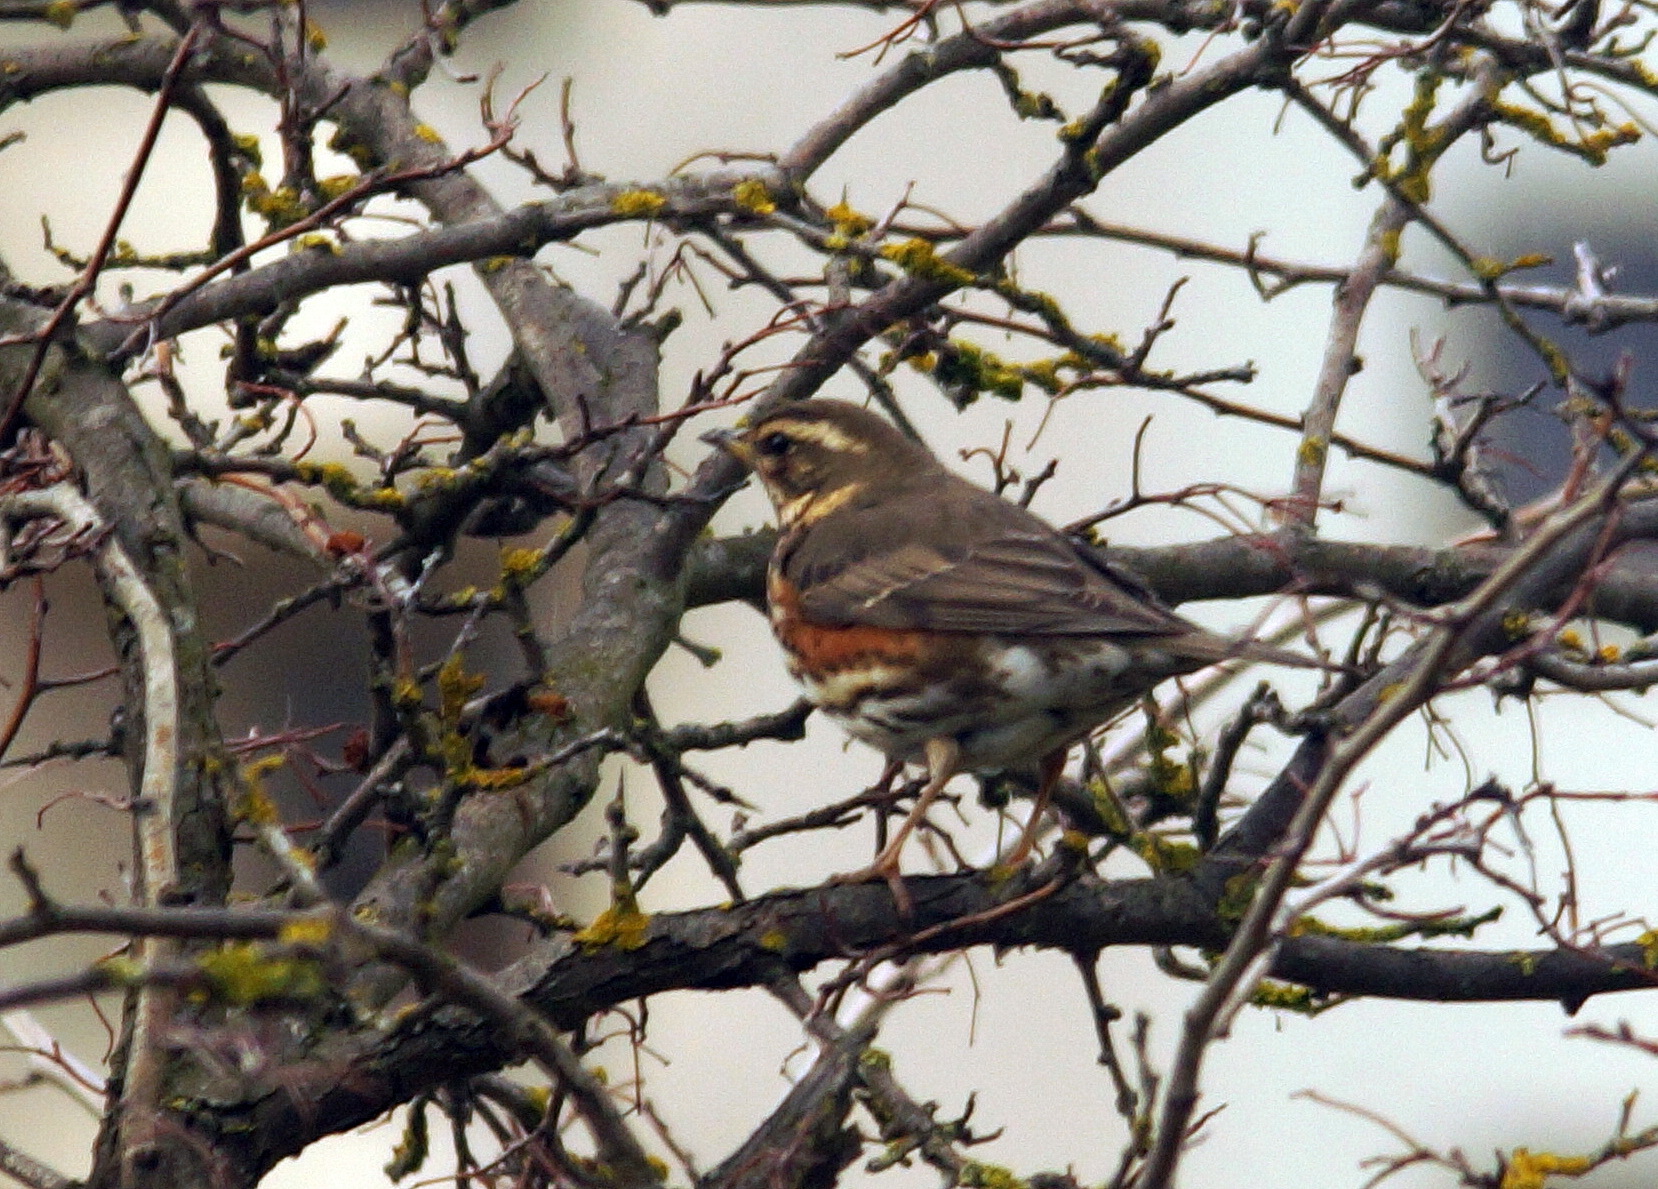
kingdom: Animalia
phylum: Chordata
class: Aves
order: Passeriformes
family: Turdidae
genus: Turdus
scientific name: Turdus iliacus
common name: Redwing
